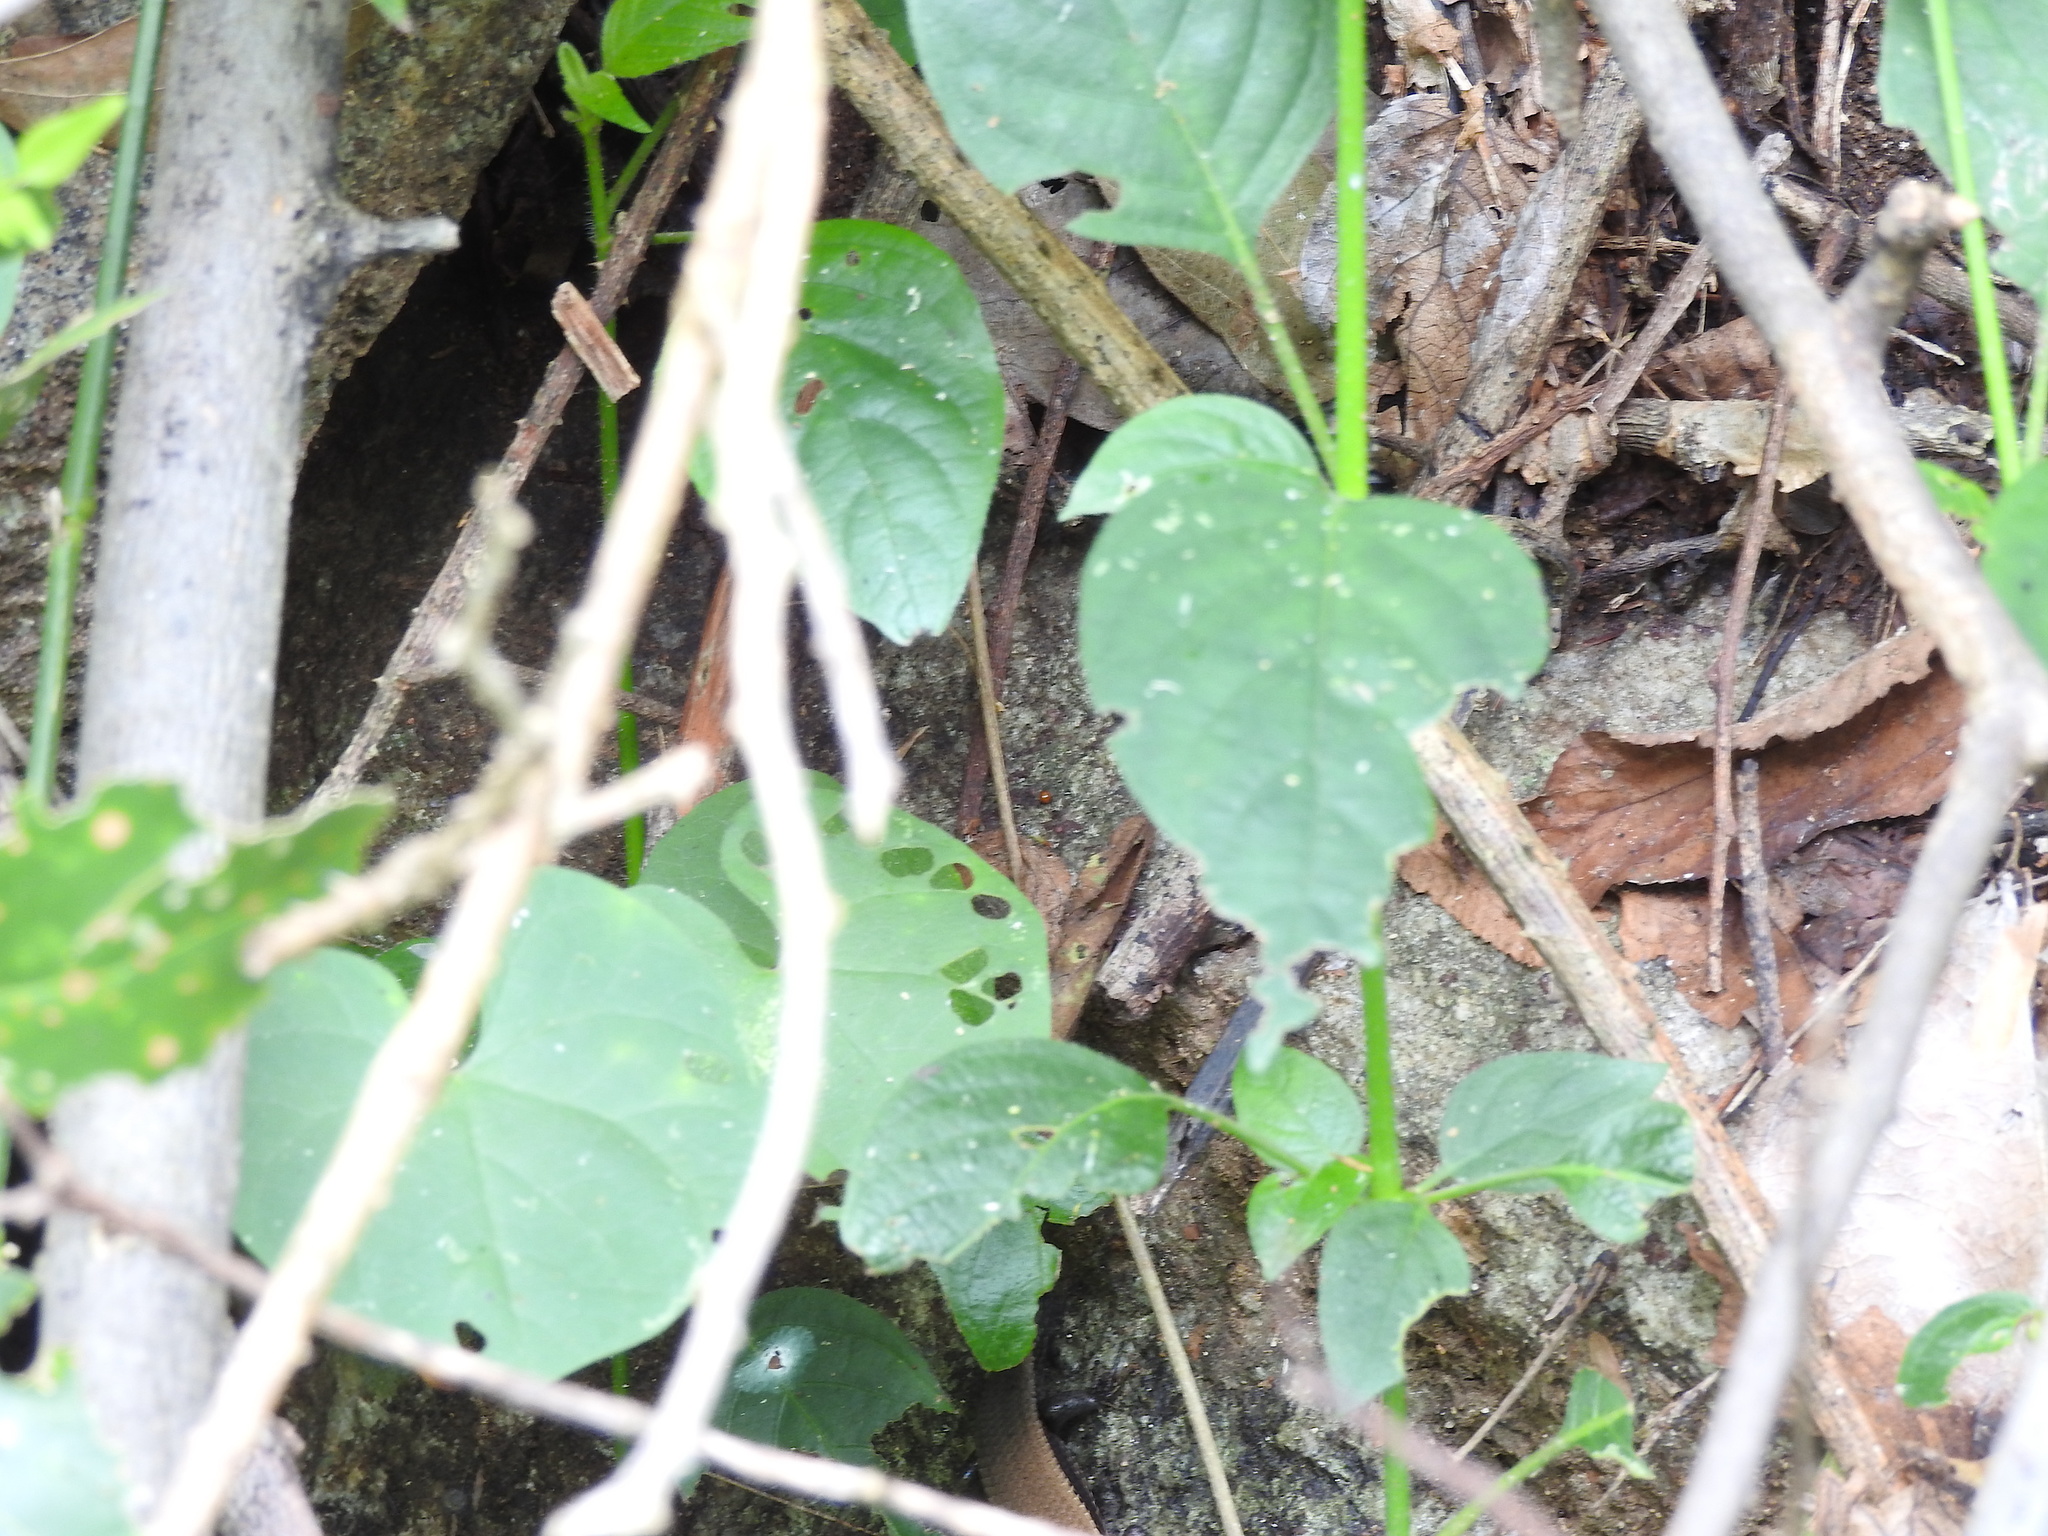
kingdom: Animalia
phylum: Chordata
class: Squamata
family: Scincidae
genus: Eutropis
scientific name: Eutropis macularia
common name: Bronze mabuya
